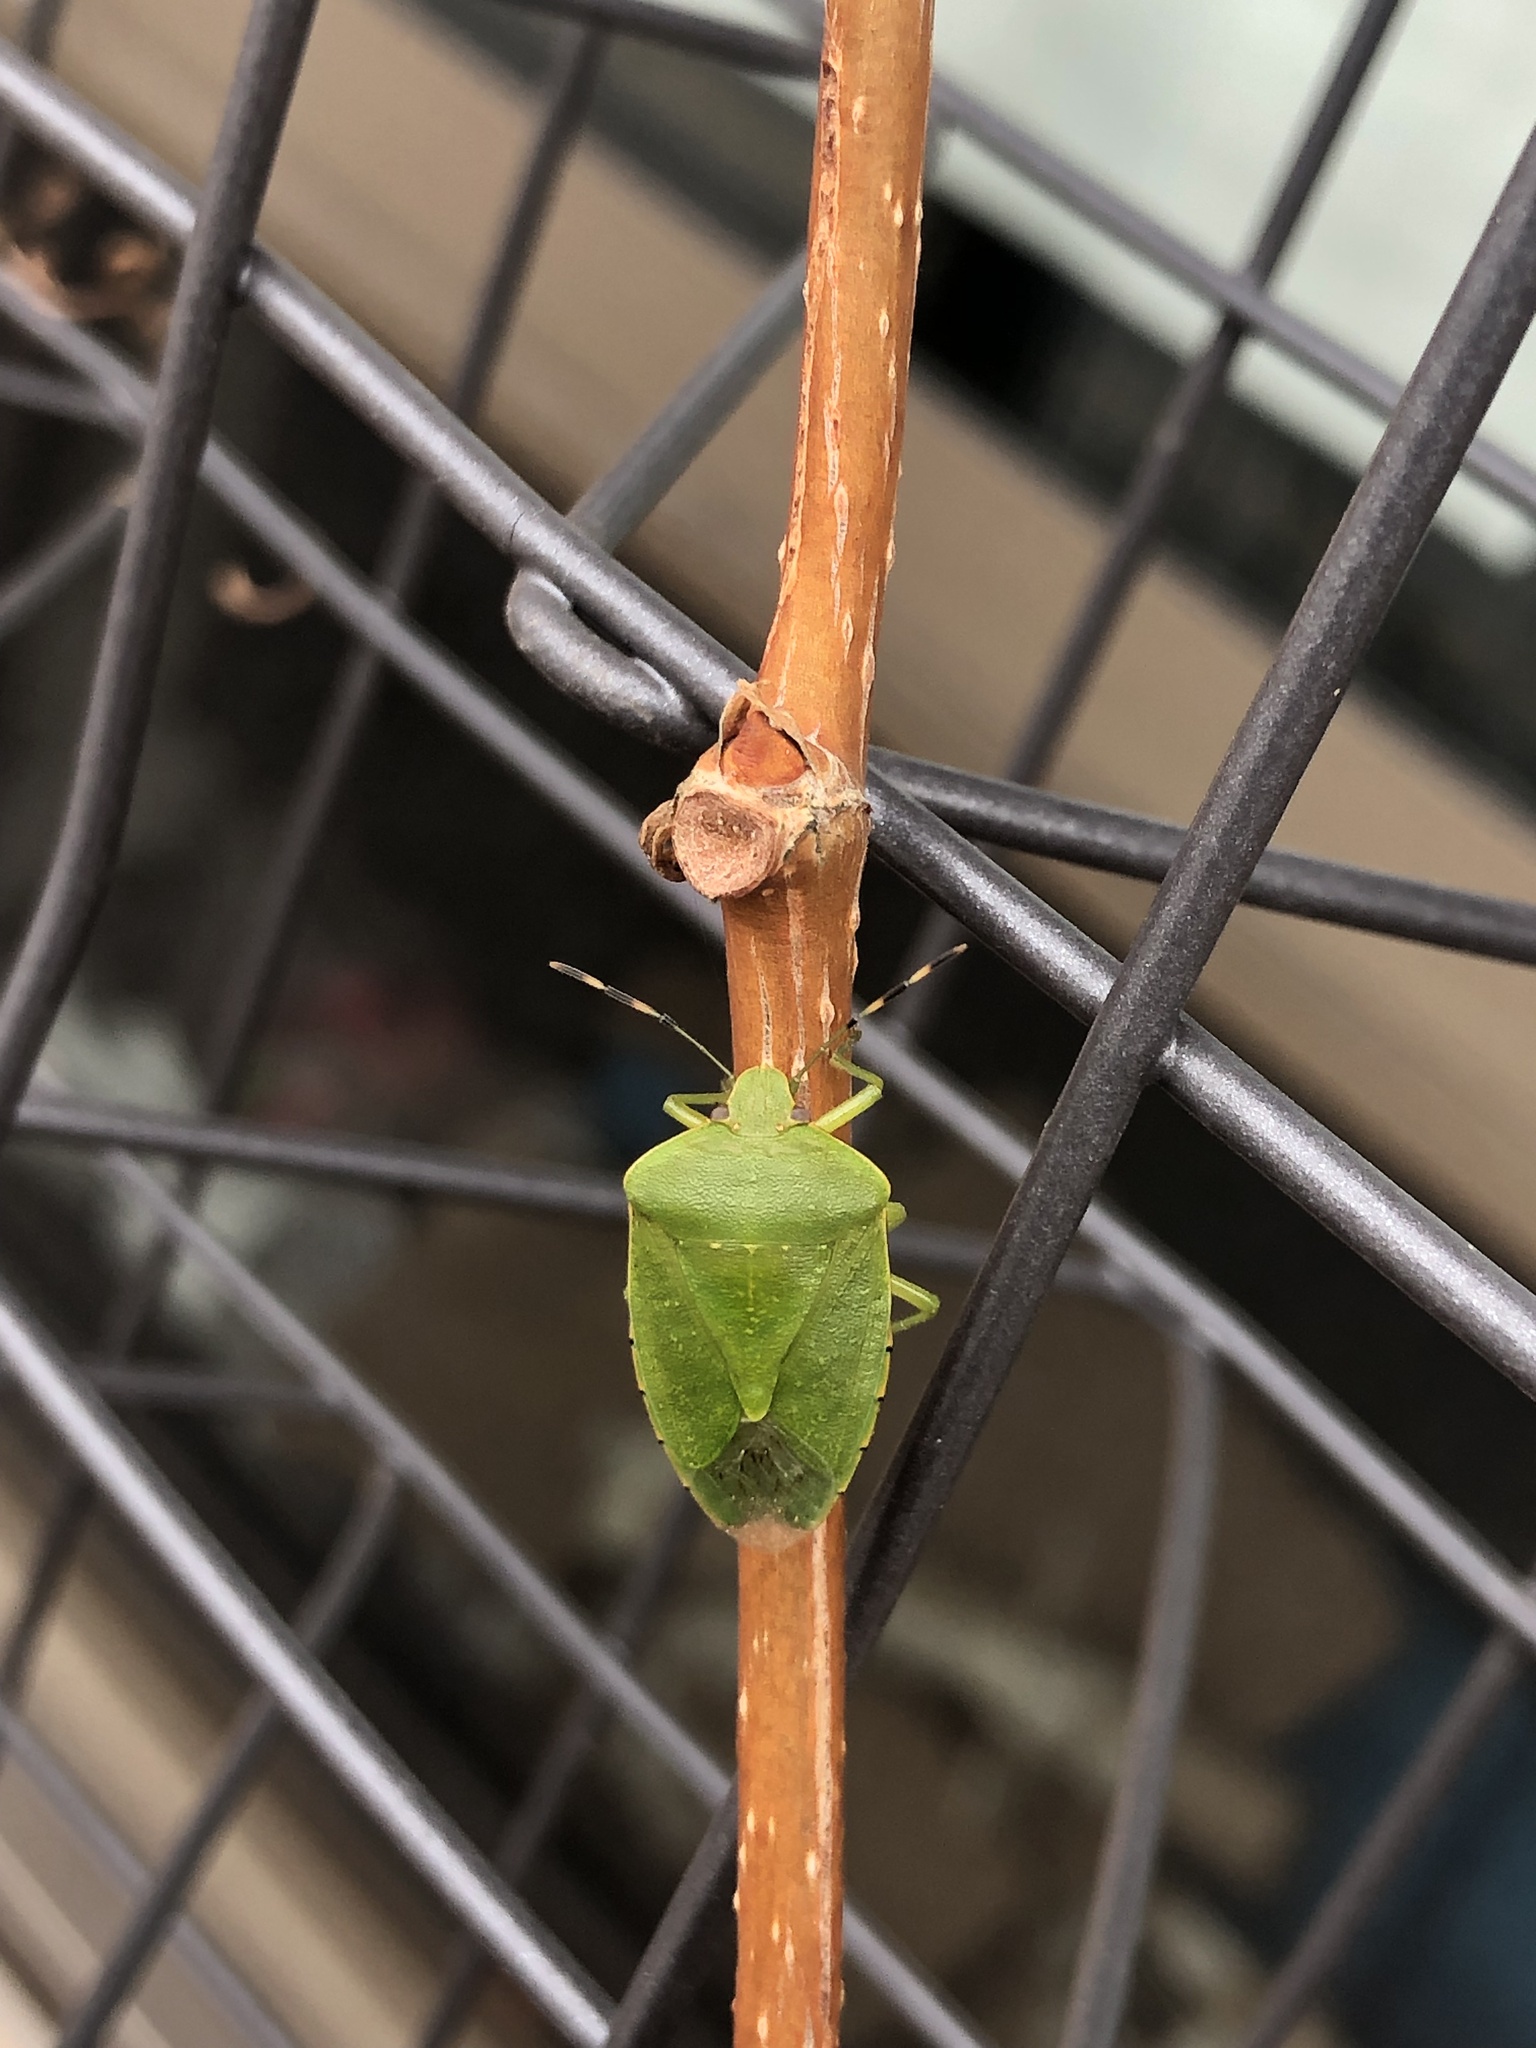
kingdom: Animalia
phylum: Arthropoda
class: Insecta
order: Hemiptera
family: Pentatomidae
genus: Chinavia
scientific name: Chinavia hilaris
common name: Green stink bug
